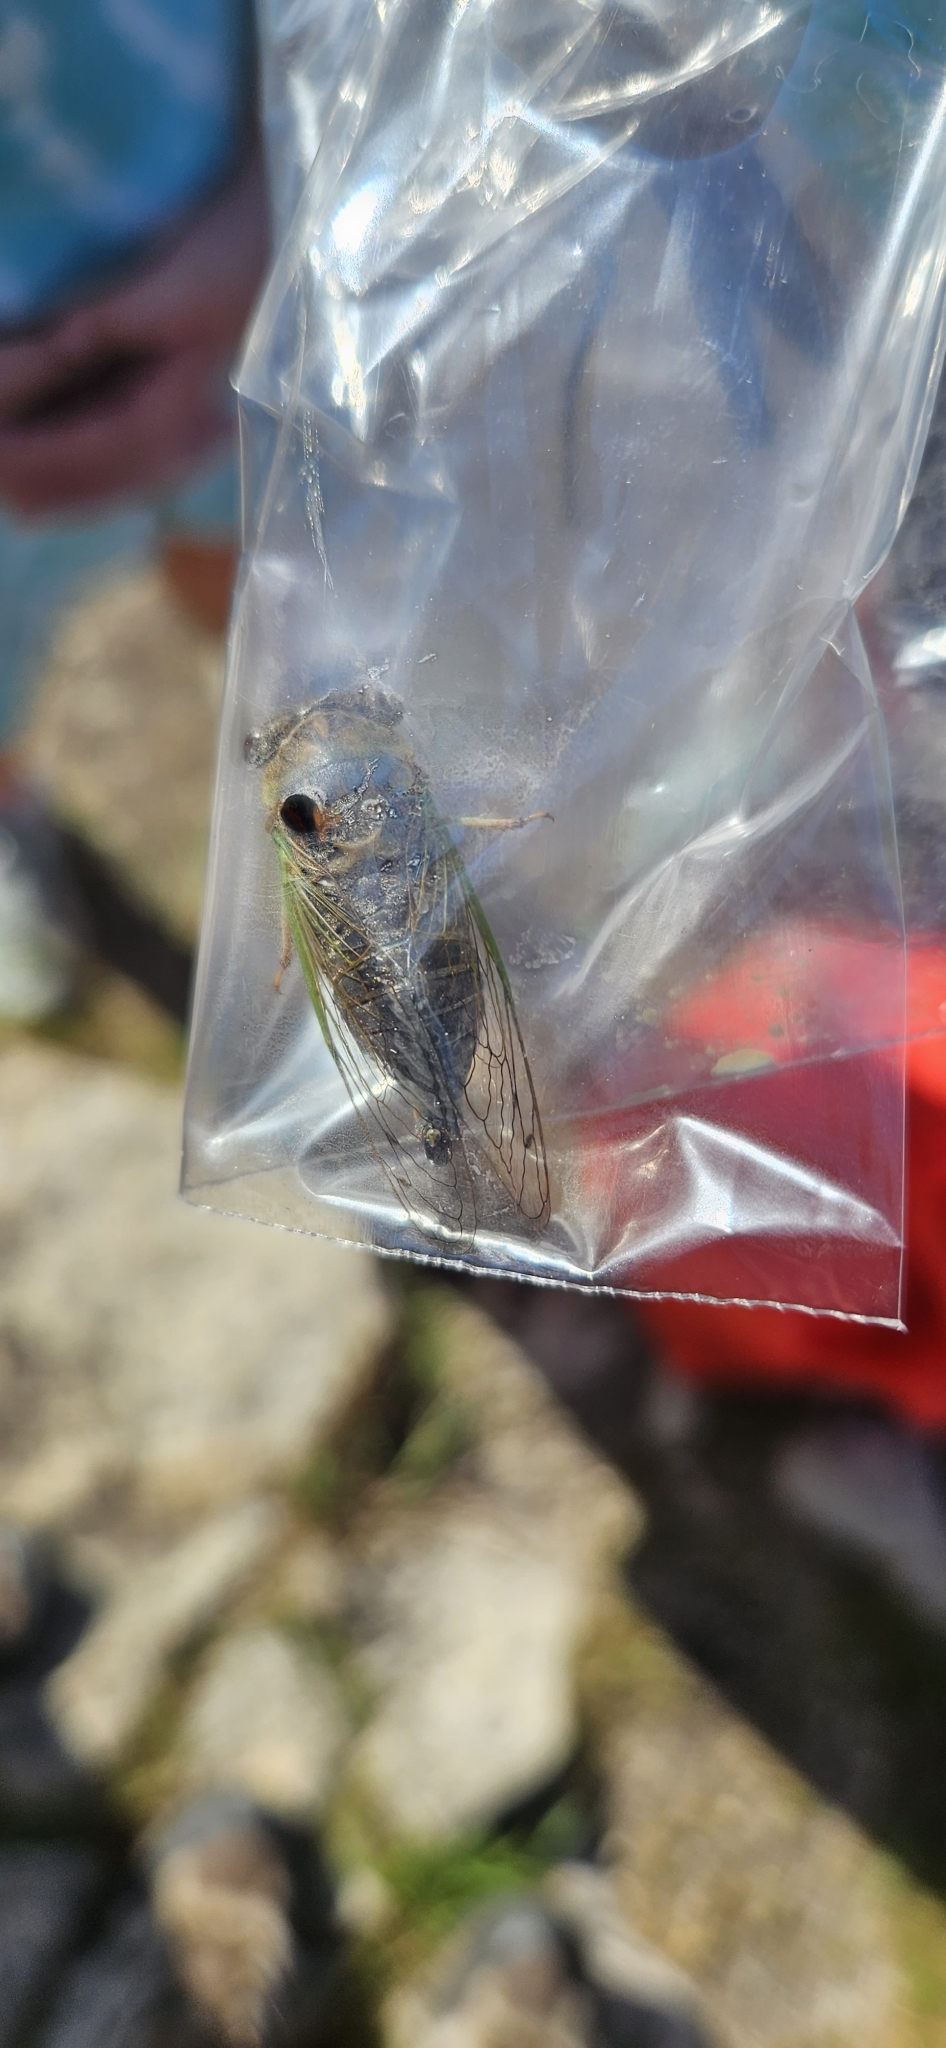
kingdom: Animalia
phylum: Arthropoda
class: Insecta
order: Hemiptera
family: Cicadidae
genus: Neotibicen
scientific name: Neotibicen aurifer
